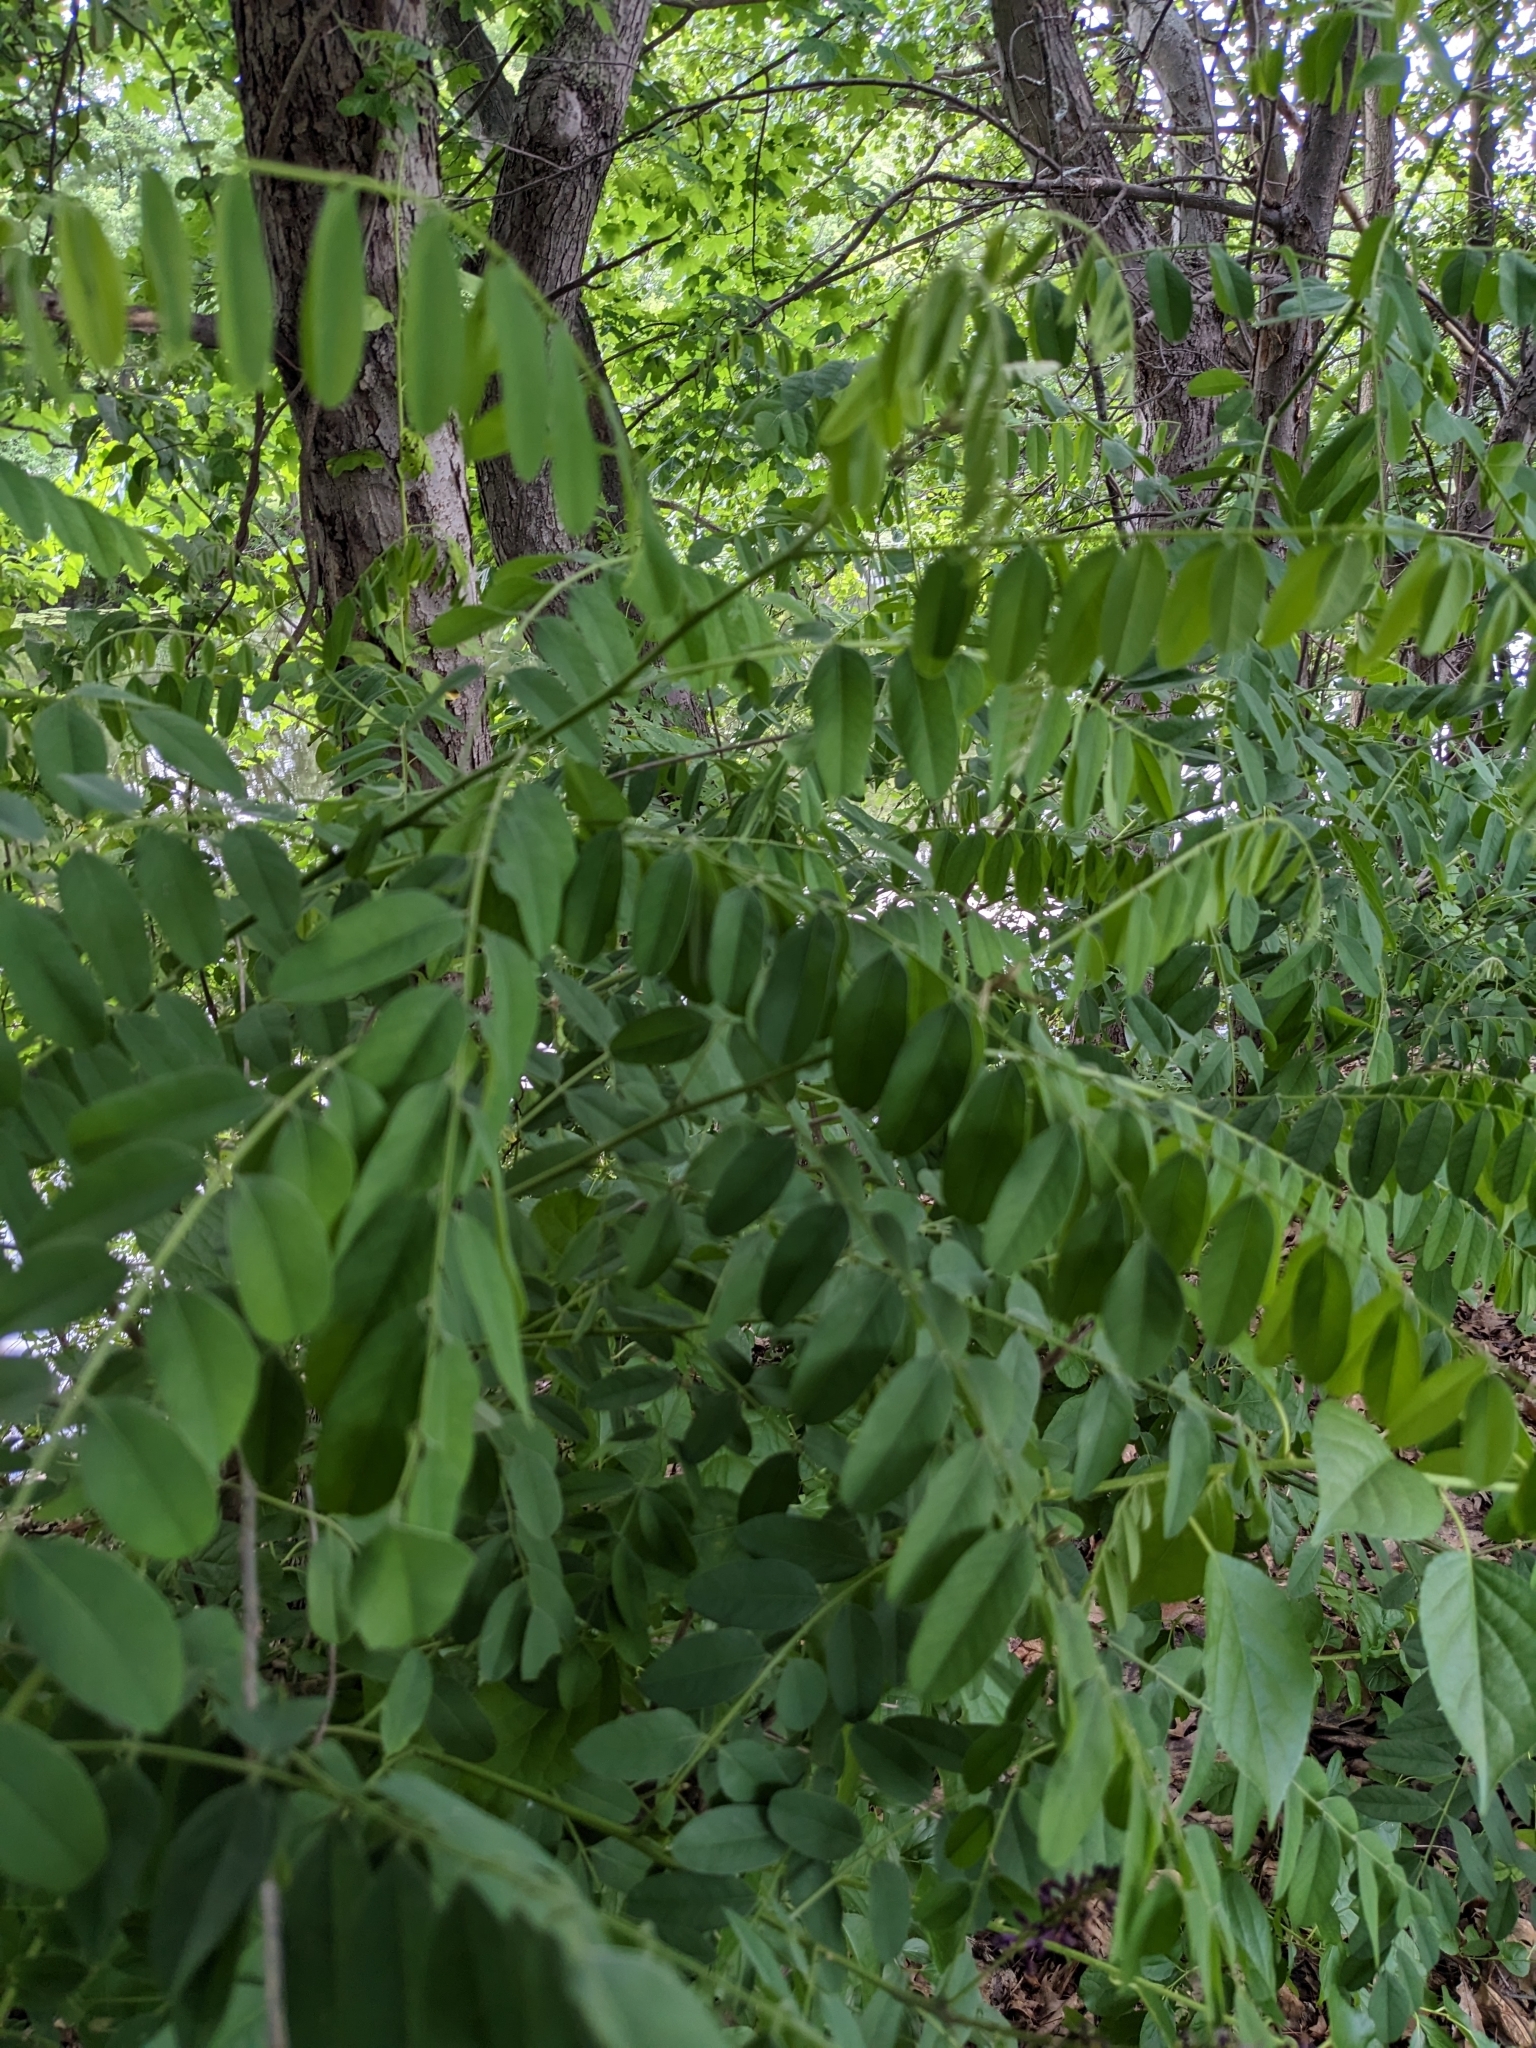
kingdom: Plantae
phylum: Tracheophyta
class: Magnoliopsida
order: Fabales
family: Fabaceae
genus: Amorpha
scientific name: Amorpha fruticosa
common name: False indigo
